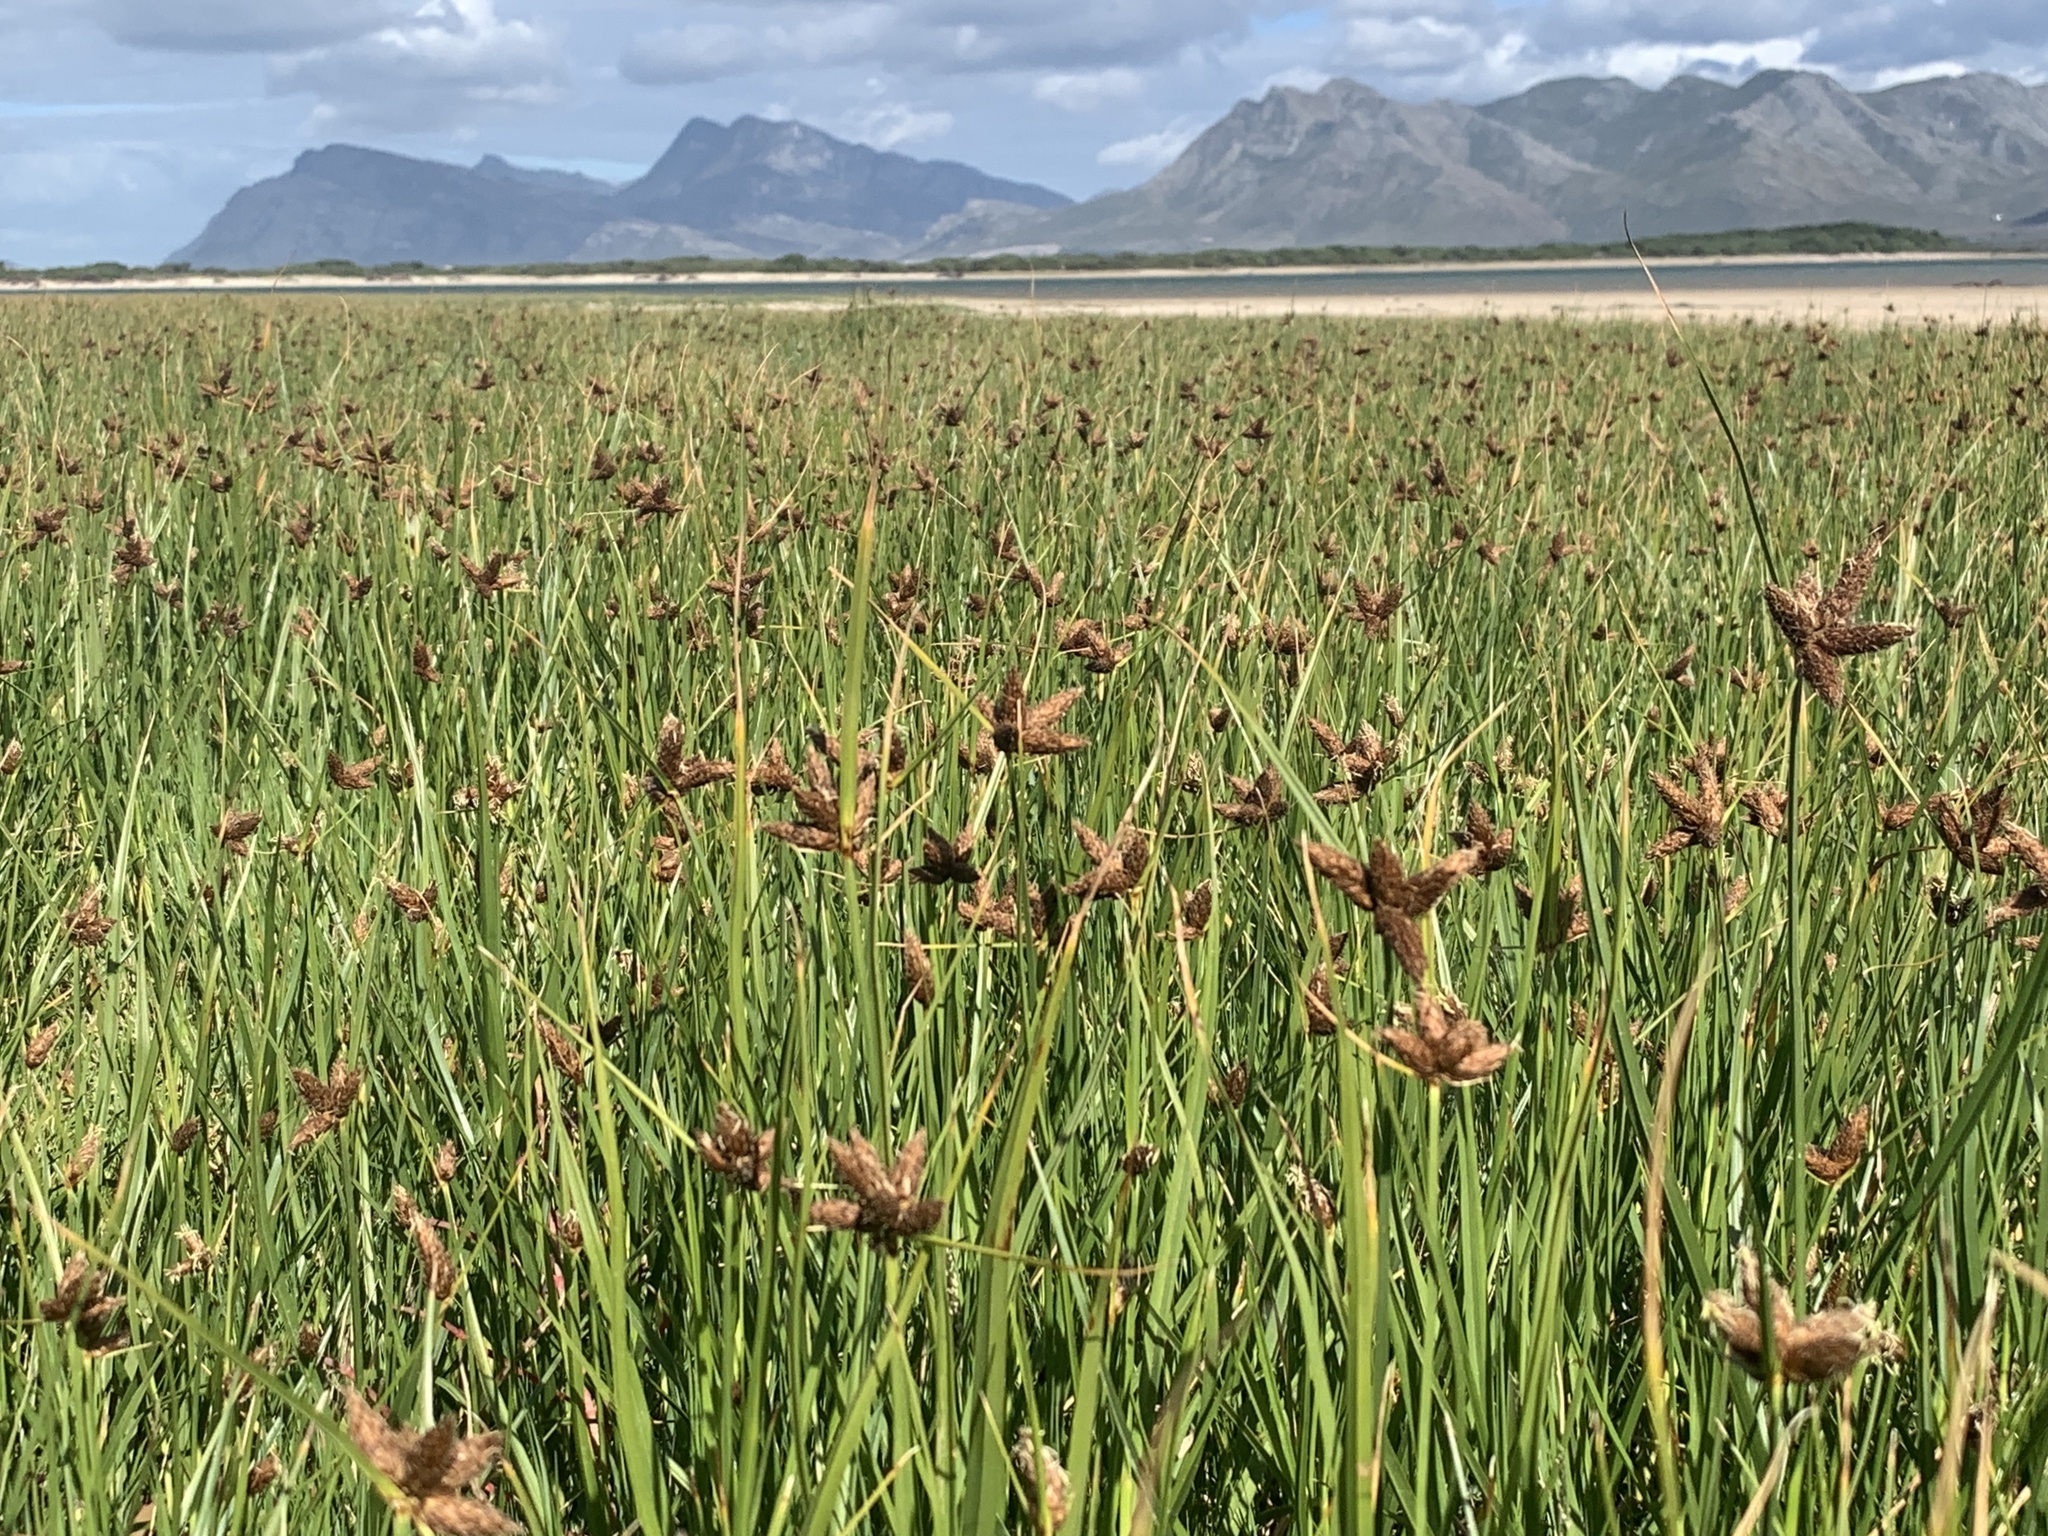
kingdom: Plantae
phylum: Tracheophyta
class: Liliopsida
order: Poales
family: Cyperaceae
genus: Bolboschoenus
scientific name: Bolboschoenus maritimus
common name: Sea club-rush
